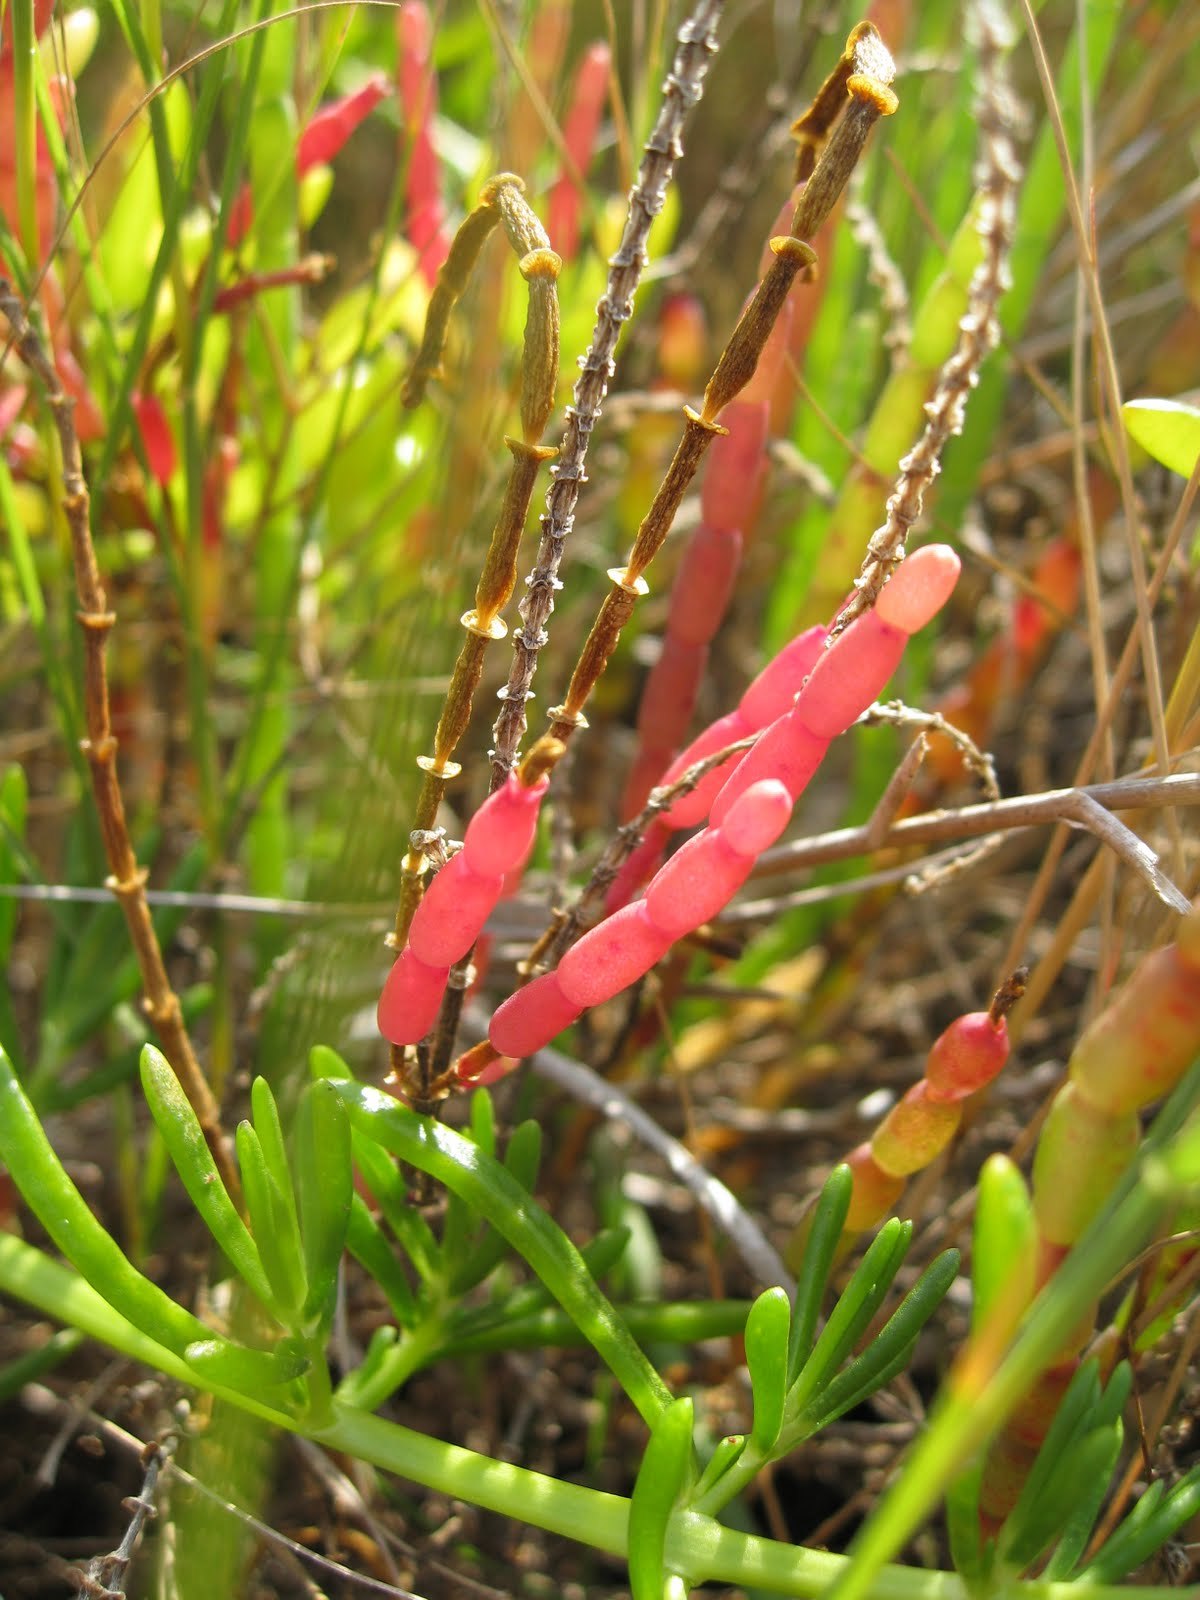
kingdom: Plantae
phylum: Tracheophyta
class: Magnoliopsida
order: Caryophyllales
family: Amaranthaceae
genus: Salicornia
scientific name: Salicornia ambigua
